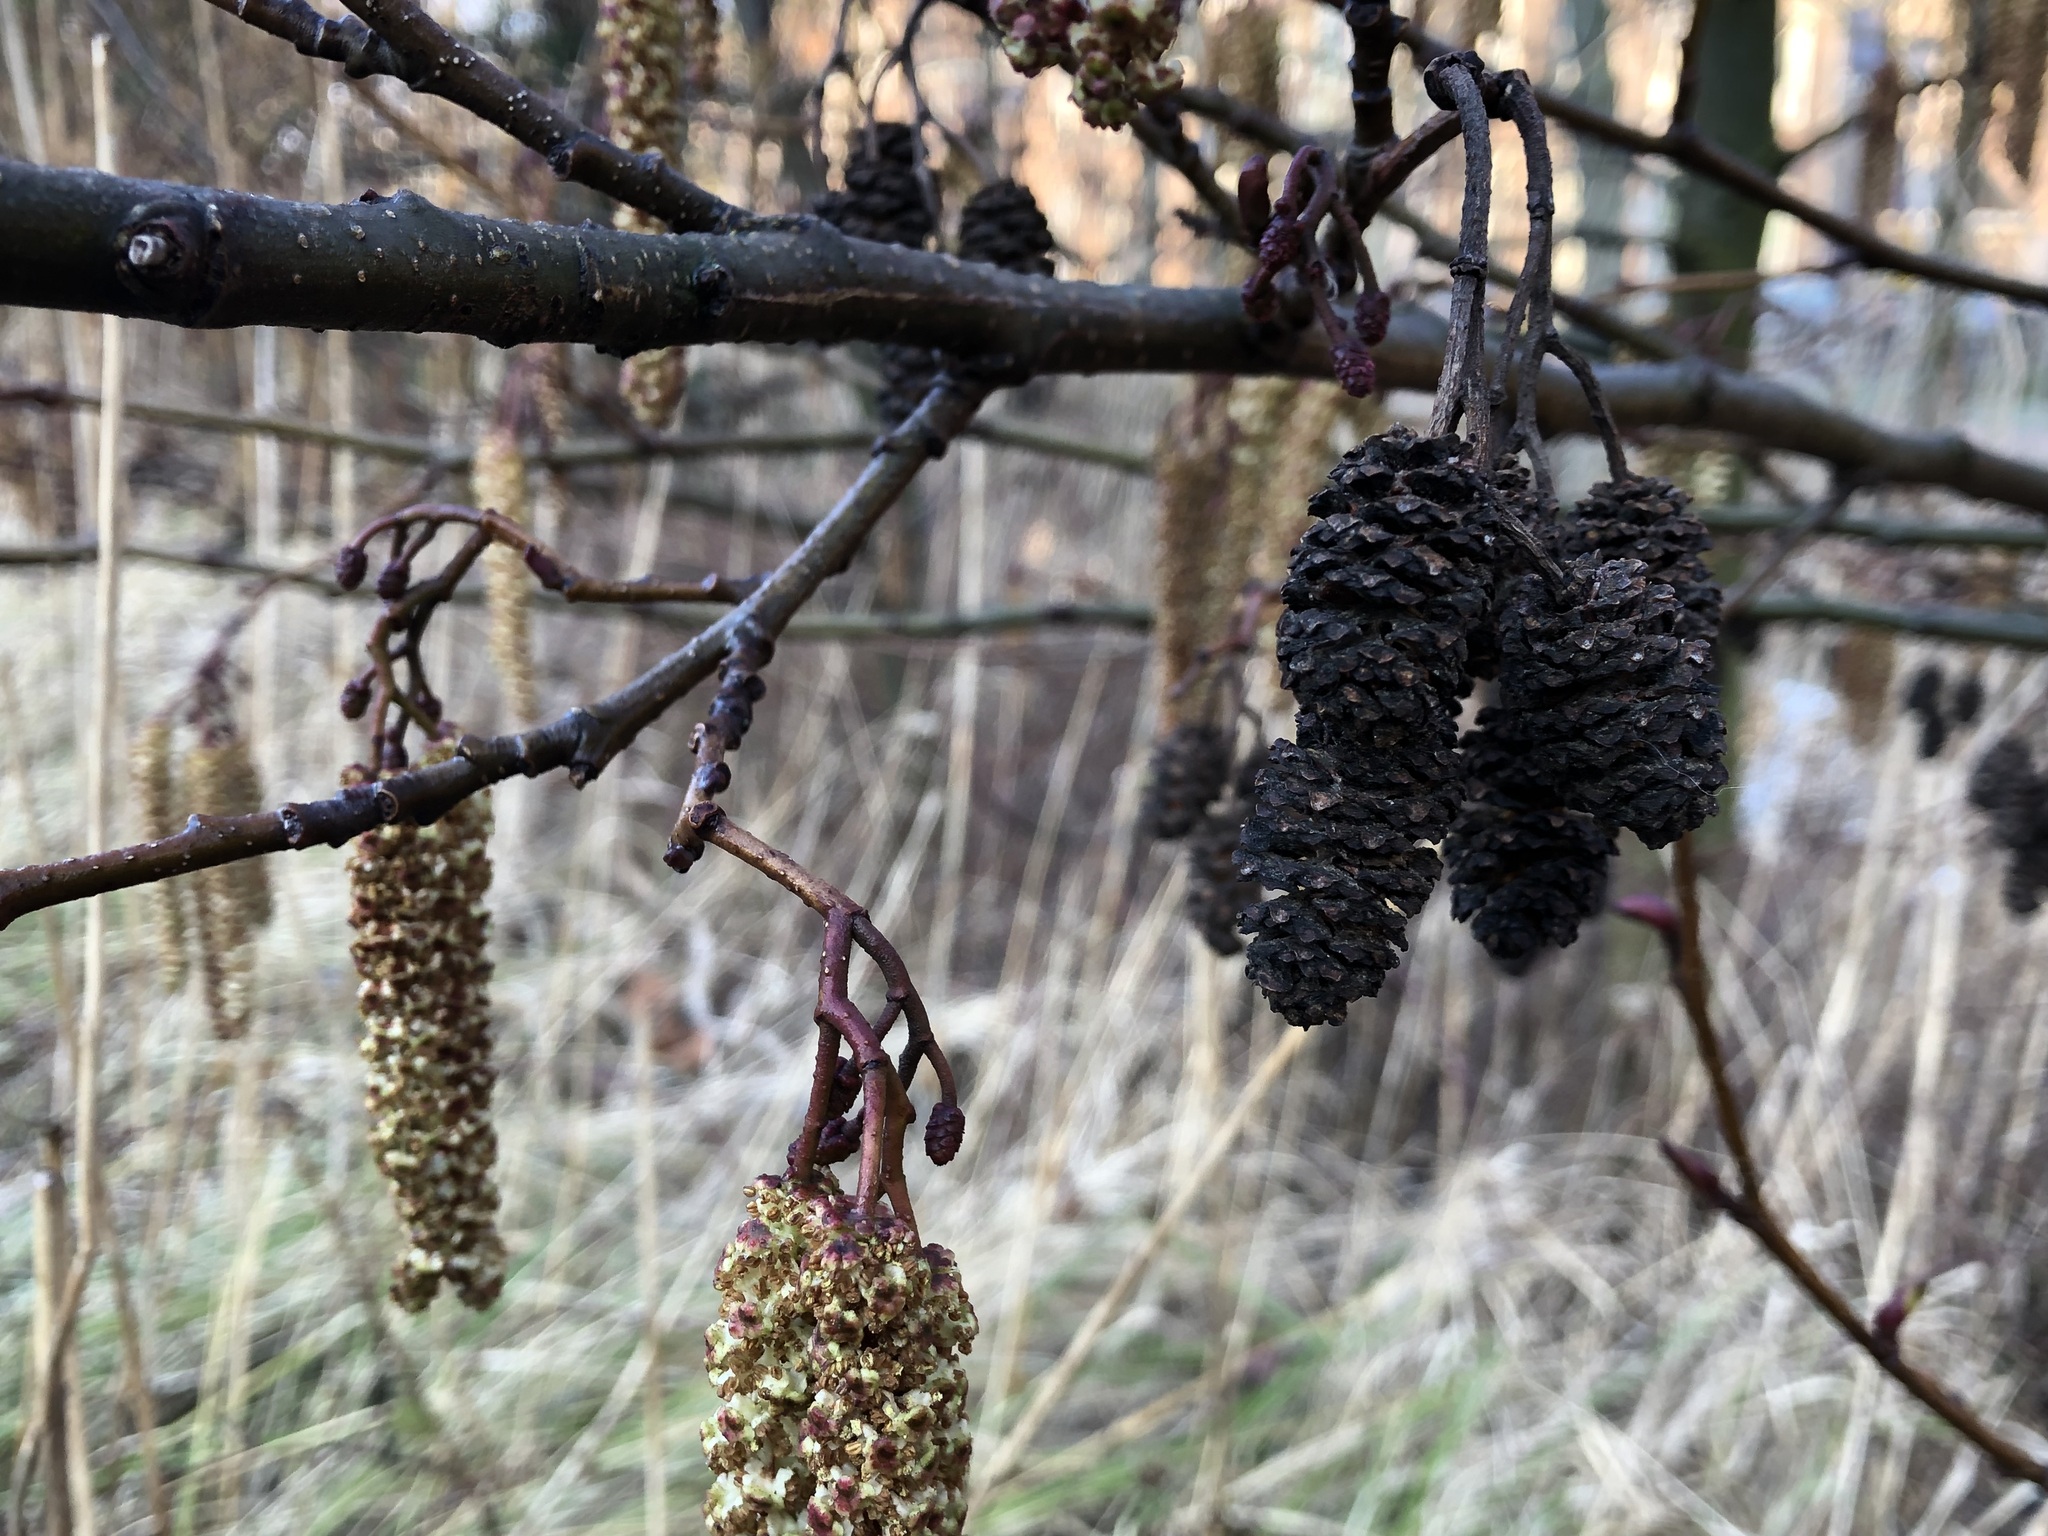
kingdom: Plantae
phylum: Tracheophyta
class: Magnoliopsida
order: Fagales
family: Betulaceae
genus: Alnus
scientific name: Alnus glutinosa
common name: Black alder
